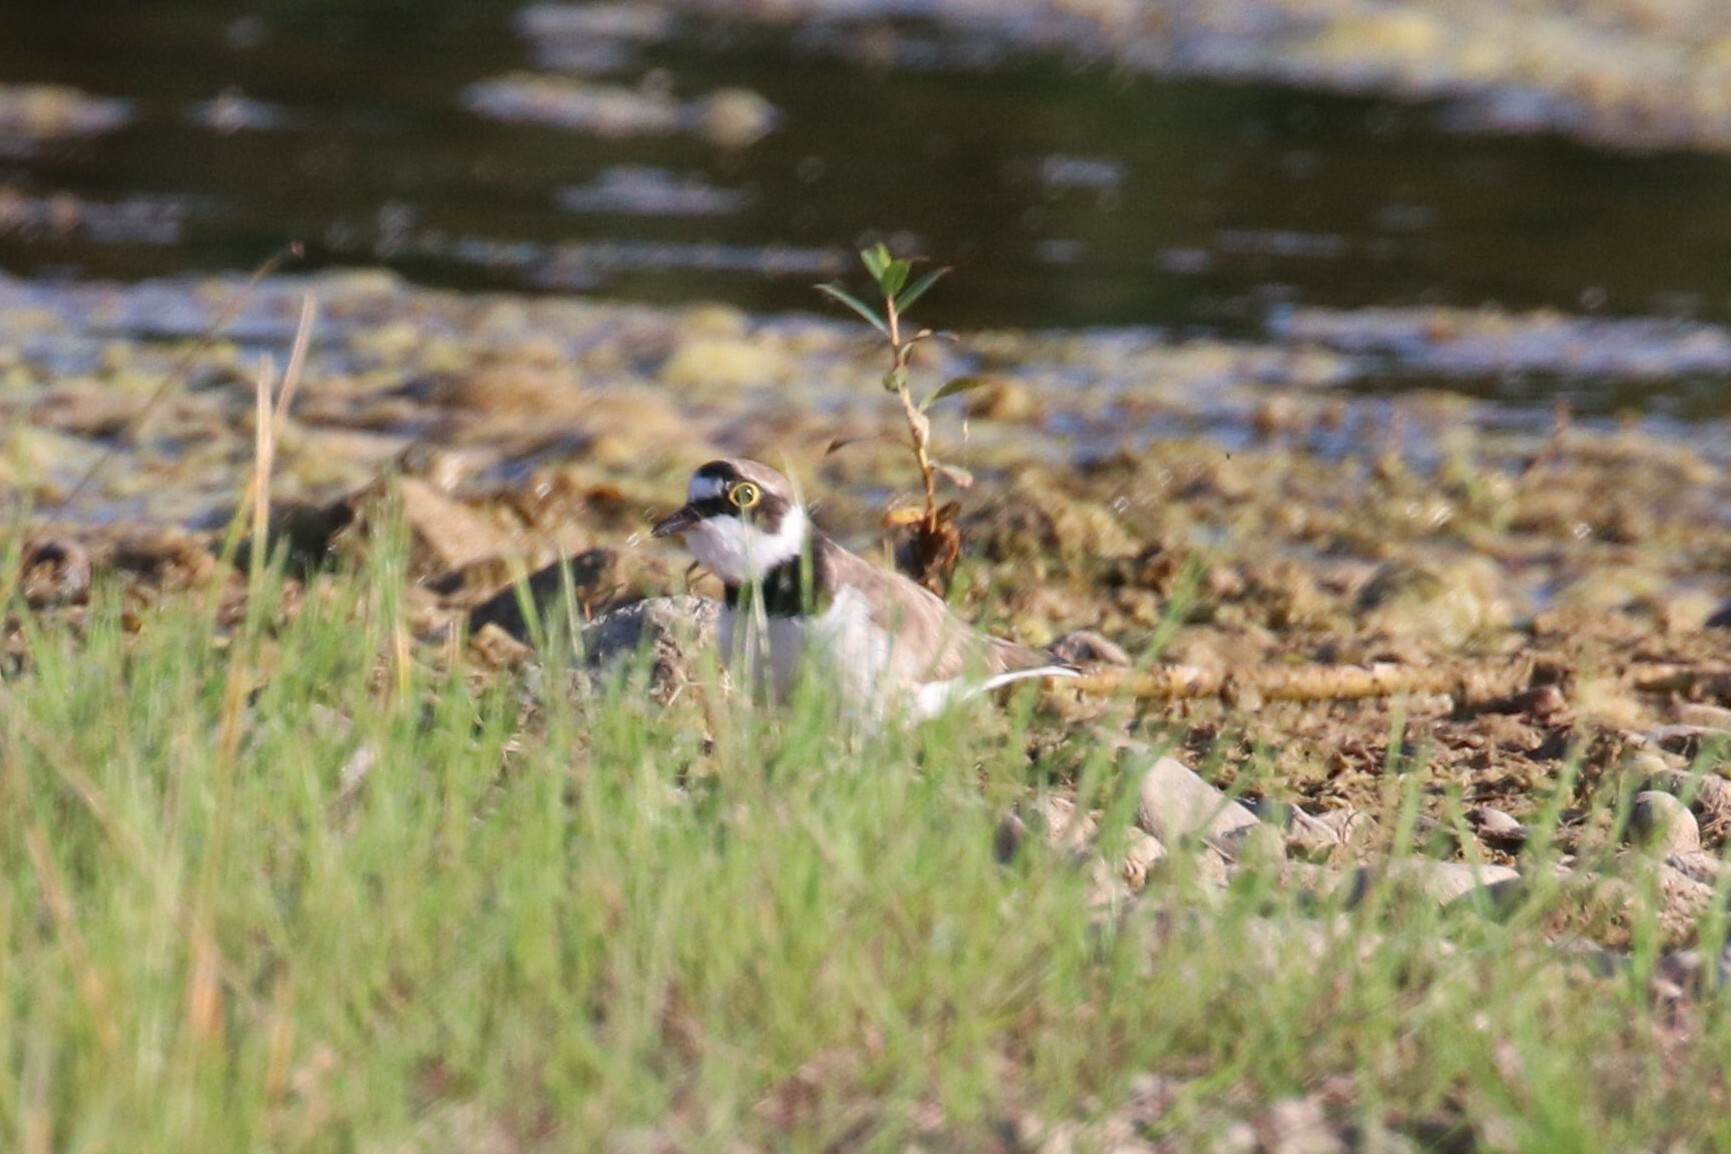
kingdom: Animalia
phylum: Chordata
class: Aves
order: Charadriiformes
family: Charadriidae
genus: Charadrius
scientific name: Charadrius dubius
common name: Little ringed plover
